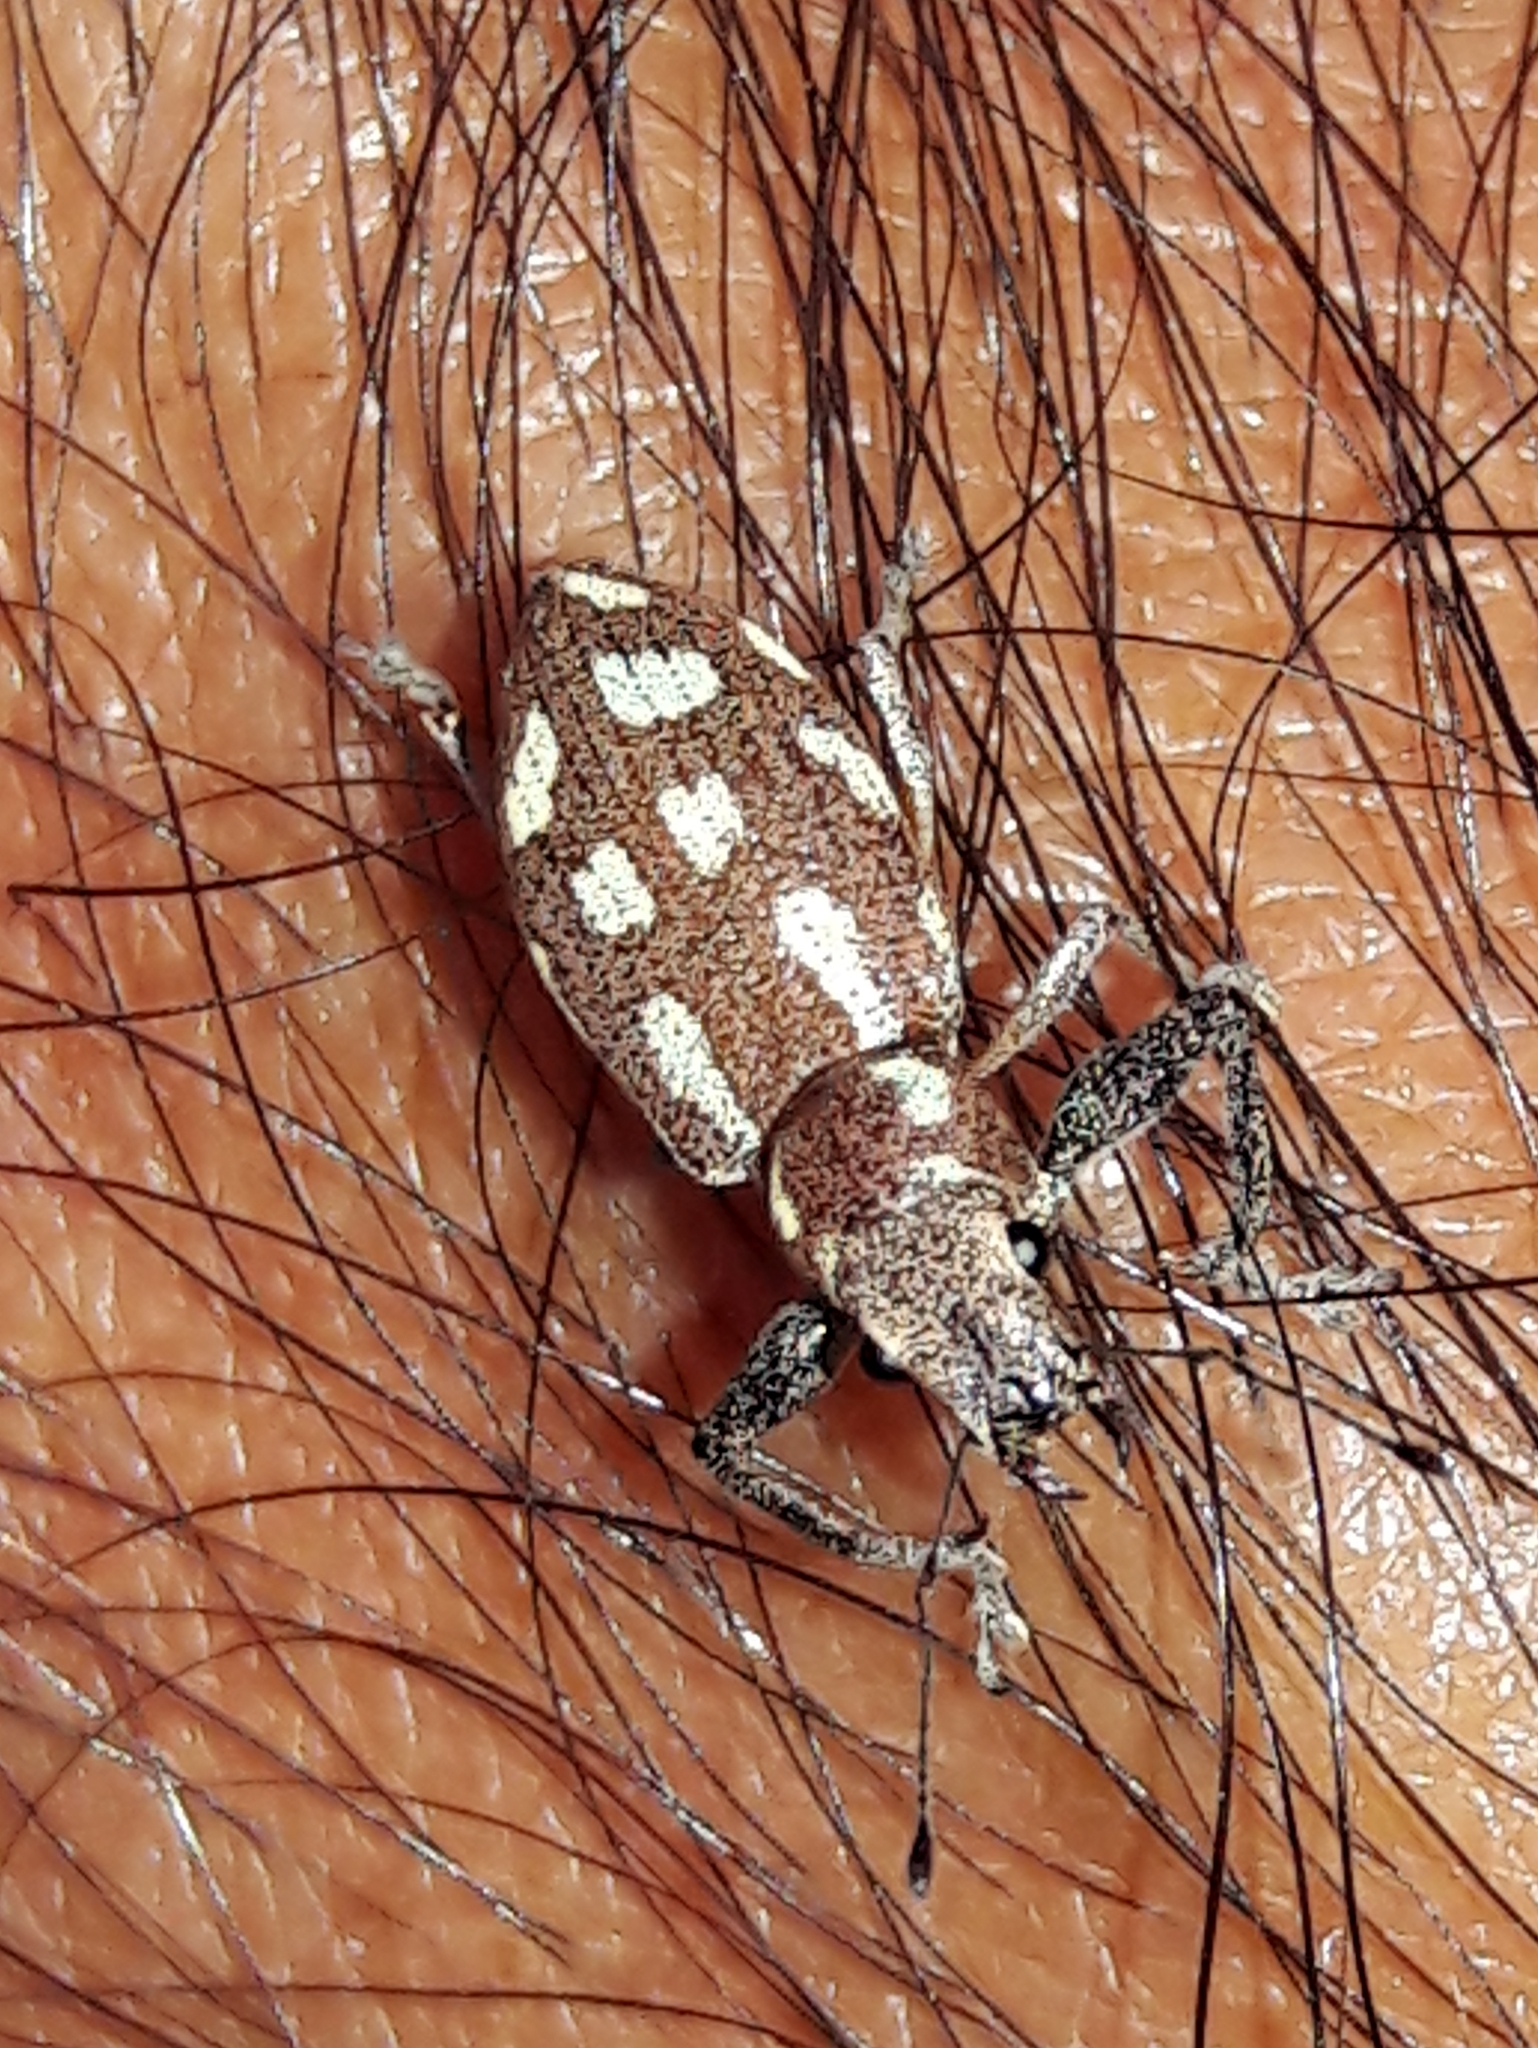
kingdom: Animalia
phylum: Arthropoda
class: Insecta
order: Coleoptera
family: Curculionidae
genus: Naupactus
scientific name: Naupactus bellus
